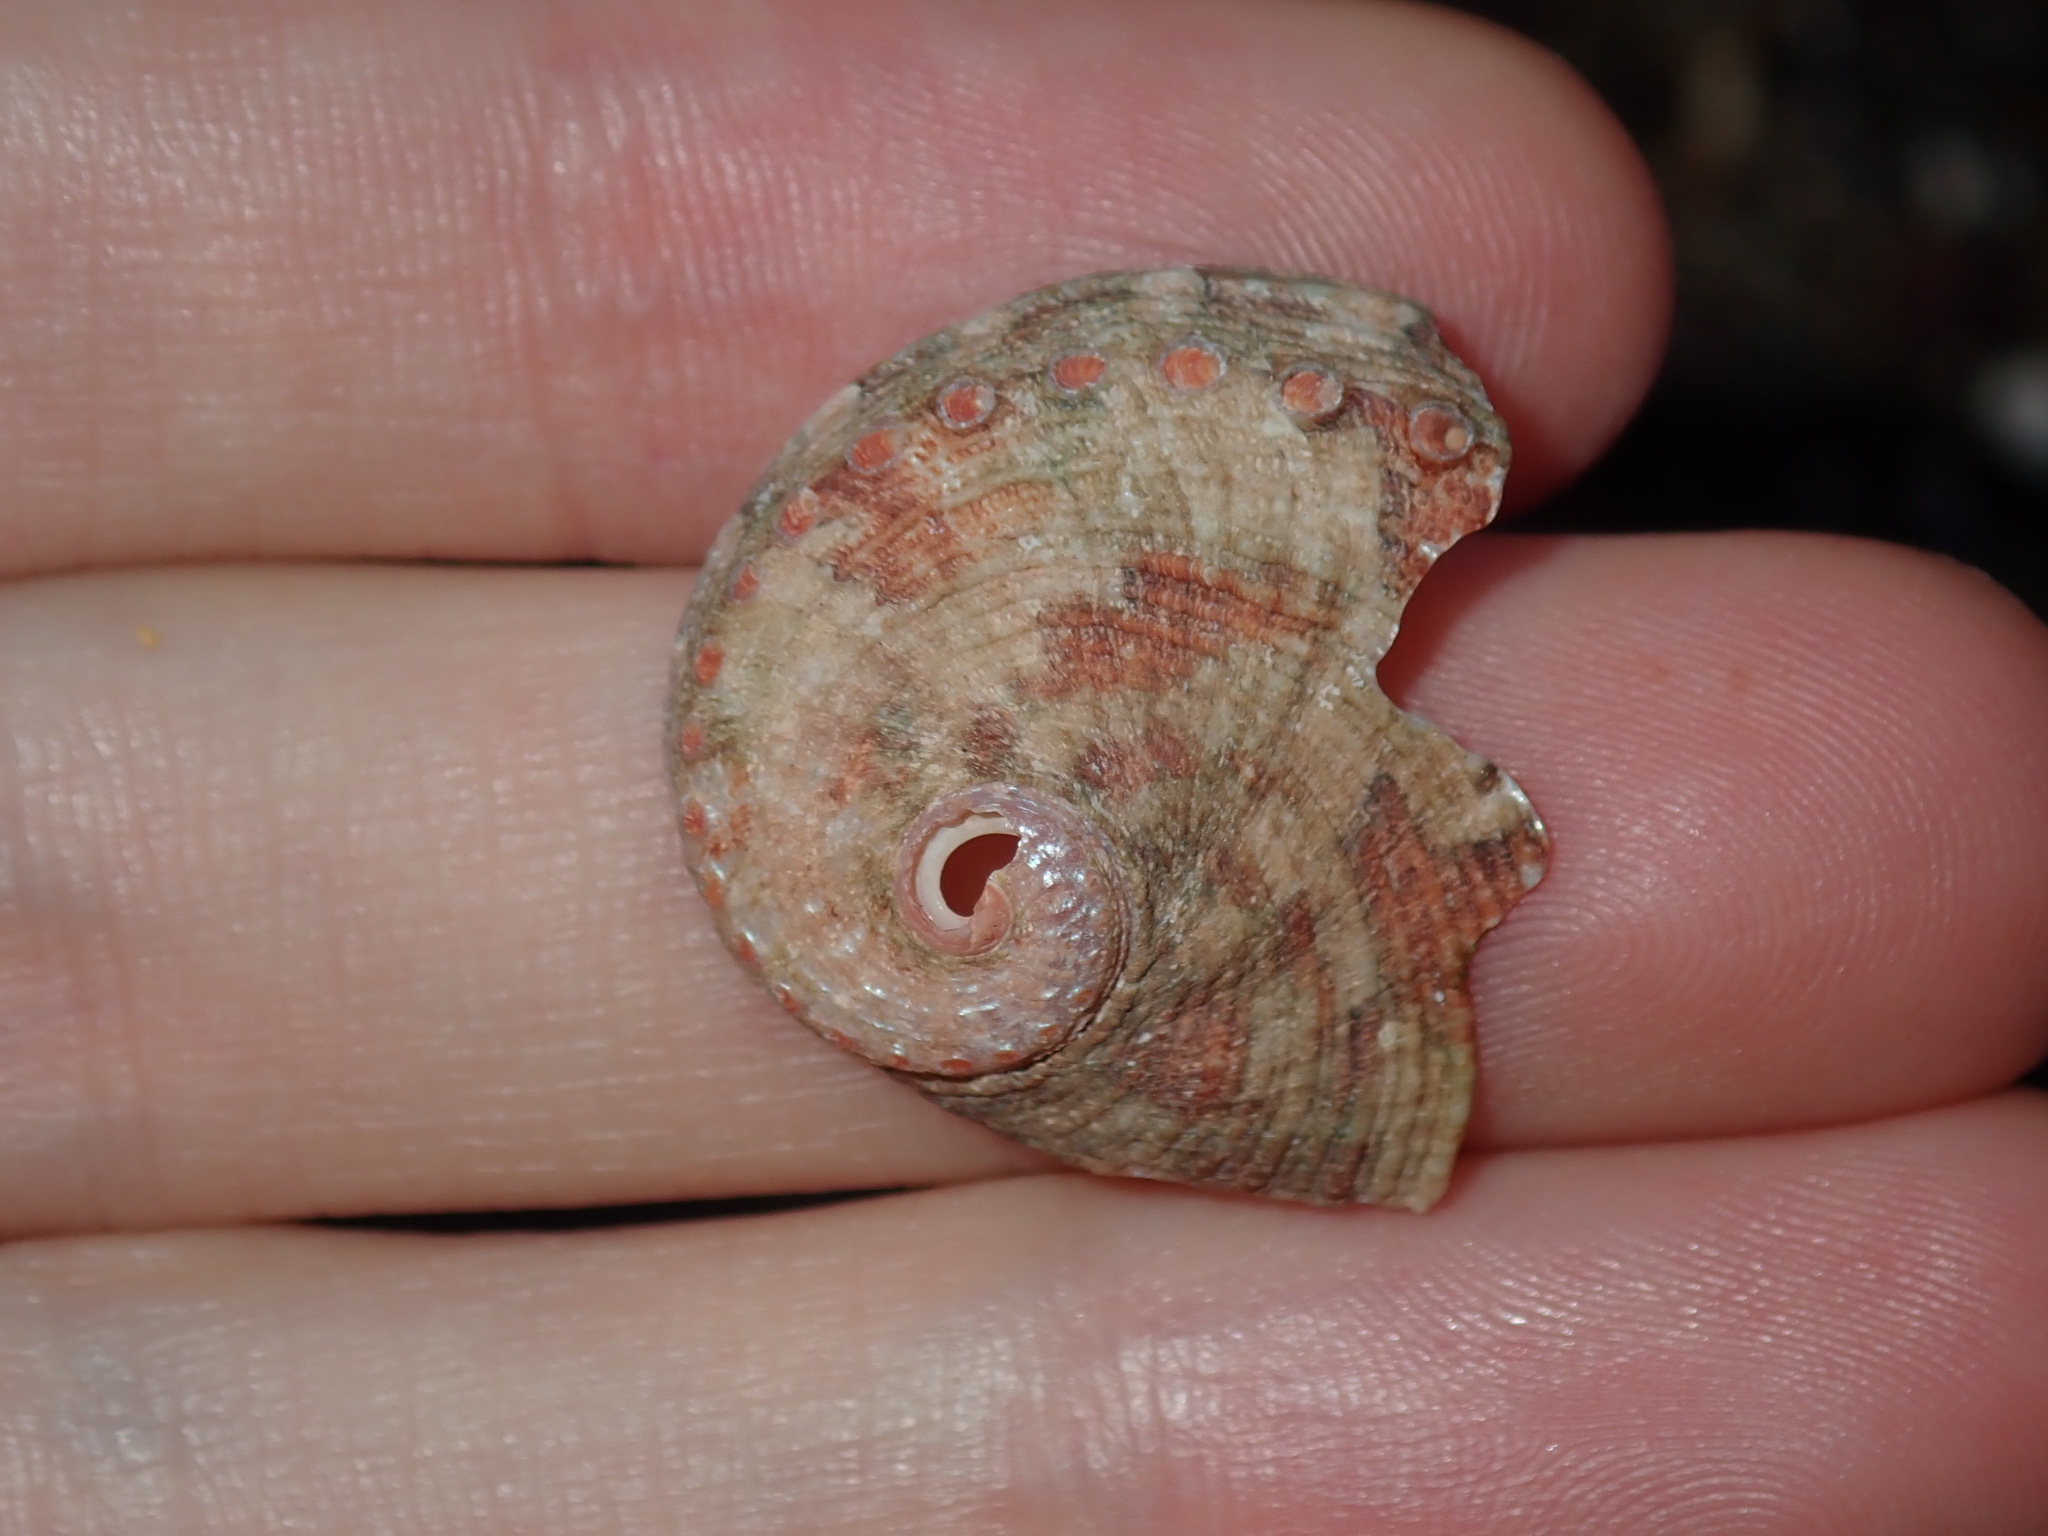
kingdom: Animalia
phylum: Mollusca
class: Gastropoda
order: Lepetellida
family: Haliotidae
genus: Haliotis
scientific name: Haliotis coccoradiata
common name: Reddish-rayed abalone
